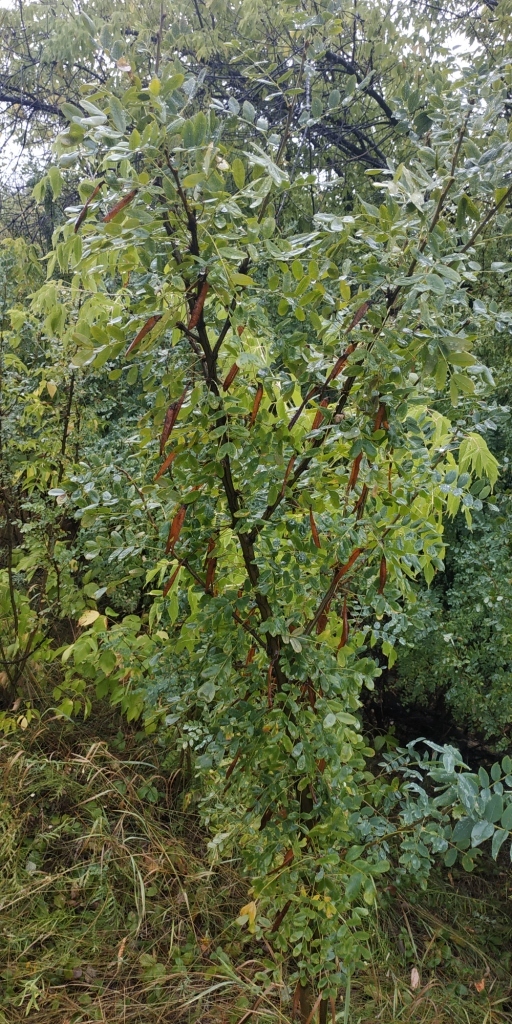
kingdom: Plantae
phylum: Tracheophyta
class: Magnoliopsida
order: Fabales
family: Fabaceae
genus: Caragana
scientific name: Caragana arborescens
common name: Siberian peashrub
